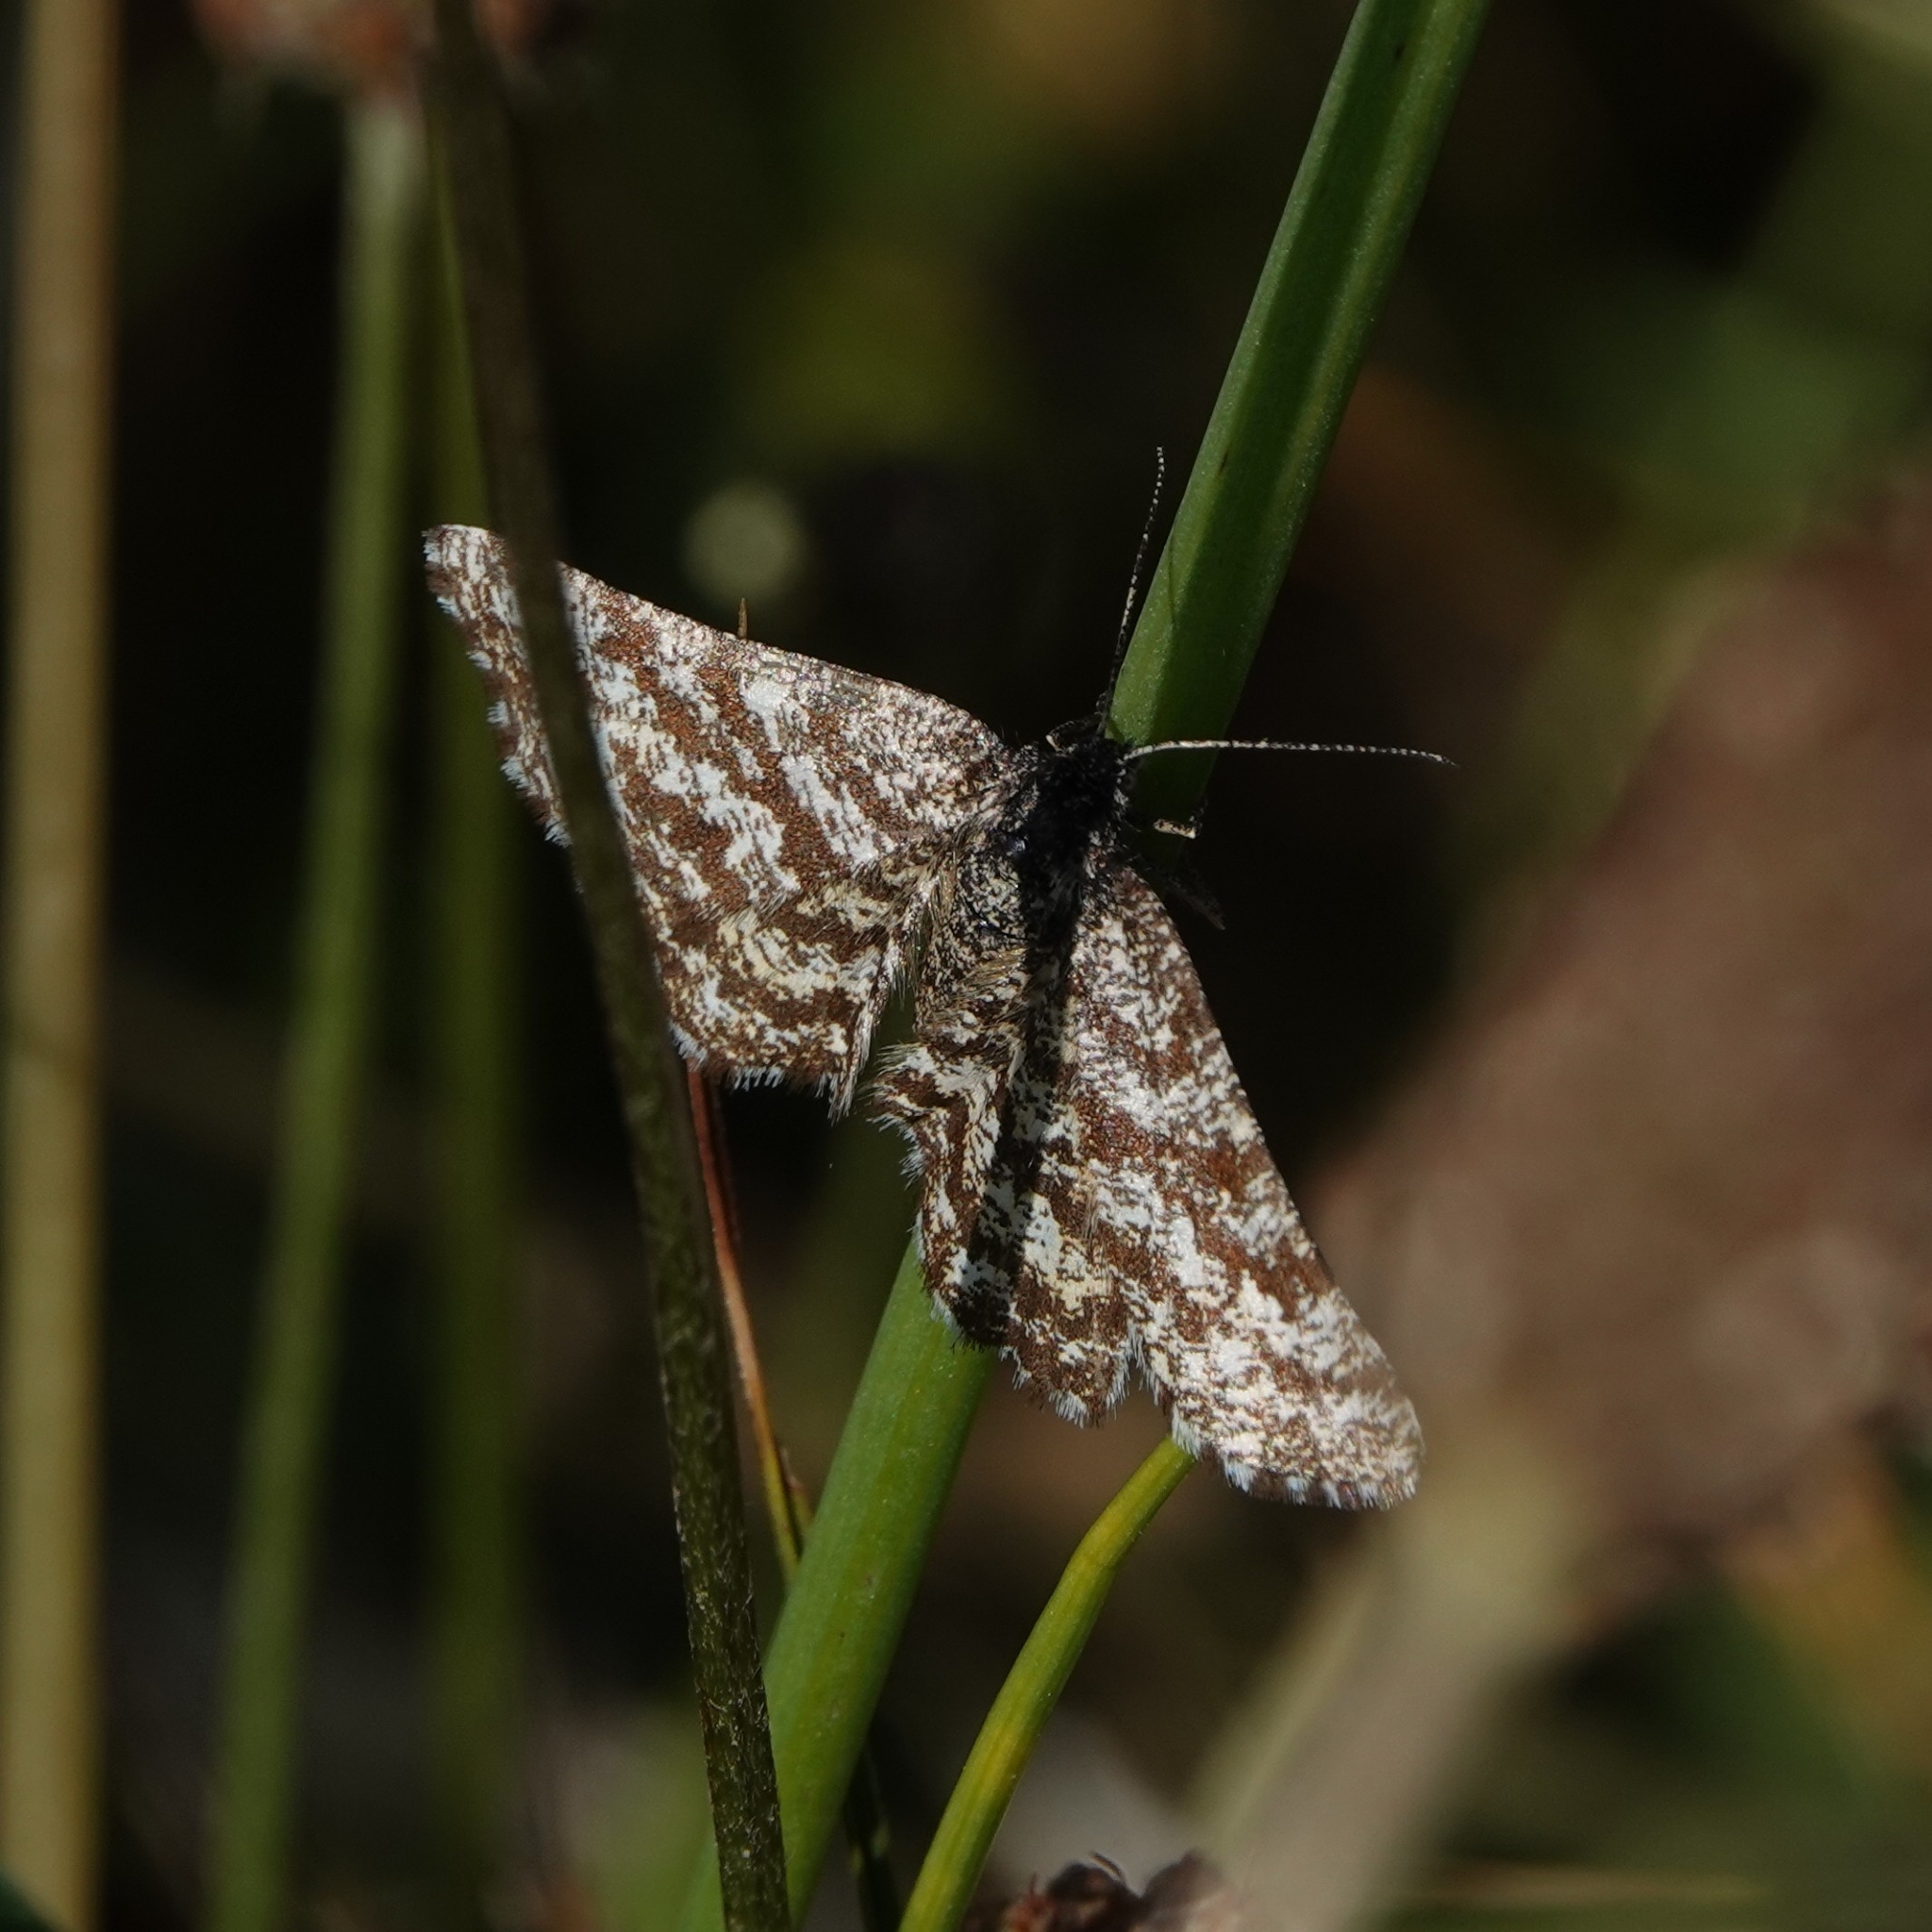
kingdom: Animalia
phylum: Arthropoda
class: Insecta
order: Lepidoptera
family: Geometridae
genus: Ematurga
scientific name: Ematurga atomaria
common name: Common heath
